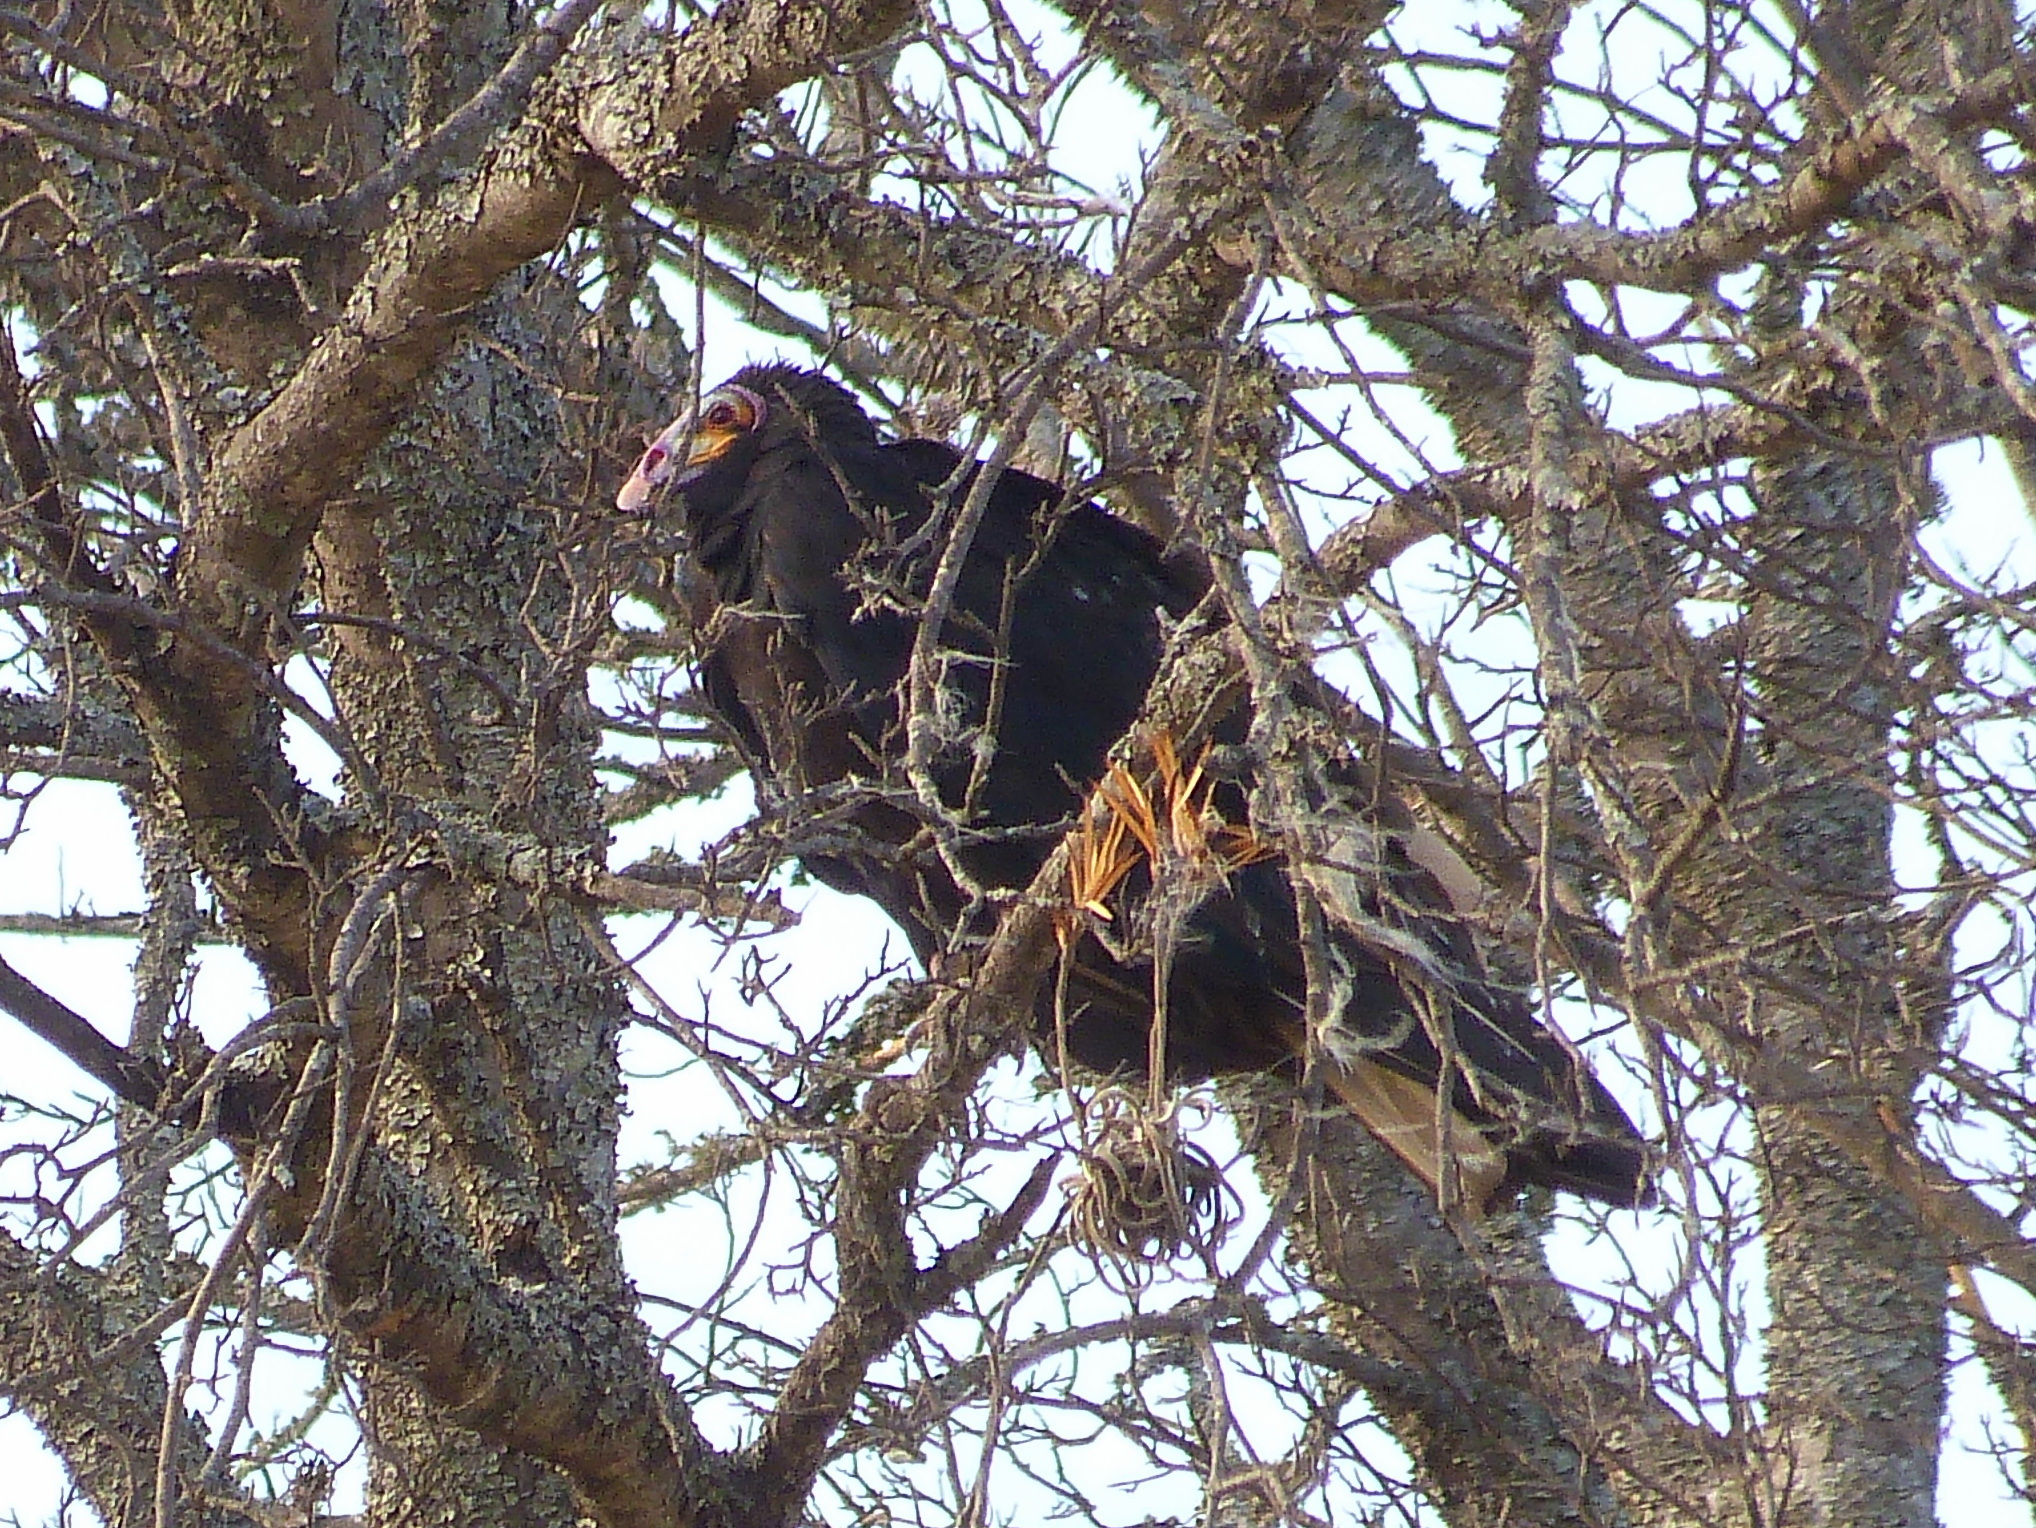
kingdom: Animalia
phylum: Chordata
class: Aves
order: Accipitriformes
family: Cathartidae
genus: Cathartes
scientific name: Cathartes burrovianus
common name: Lesser yellow-headed vulture
